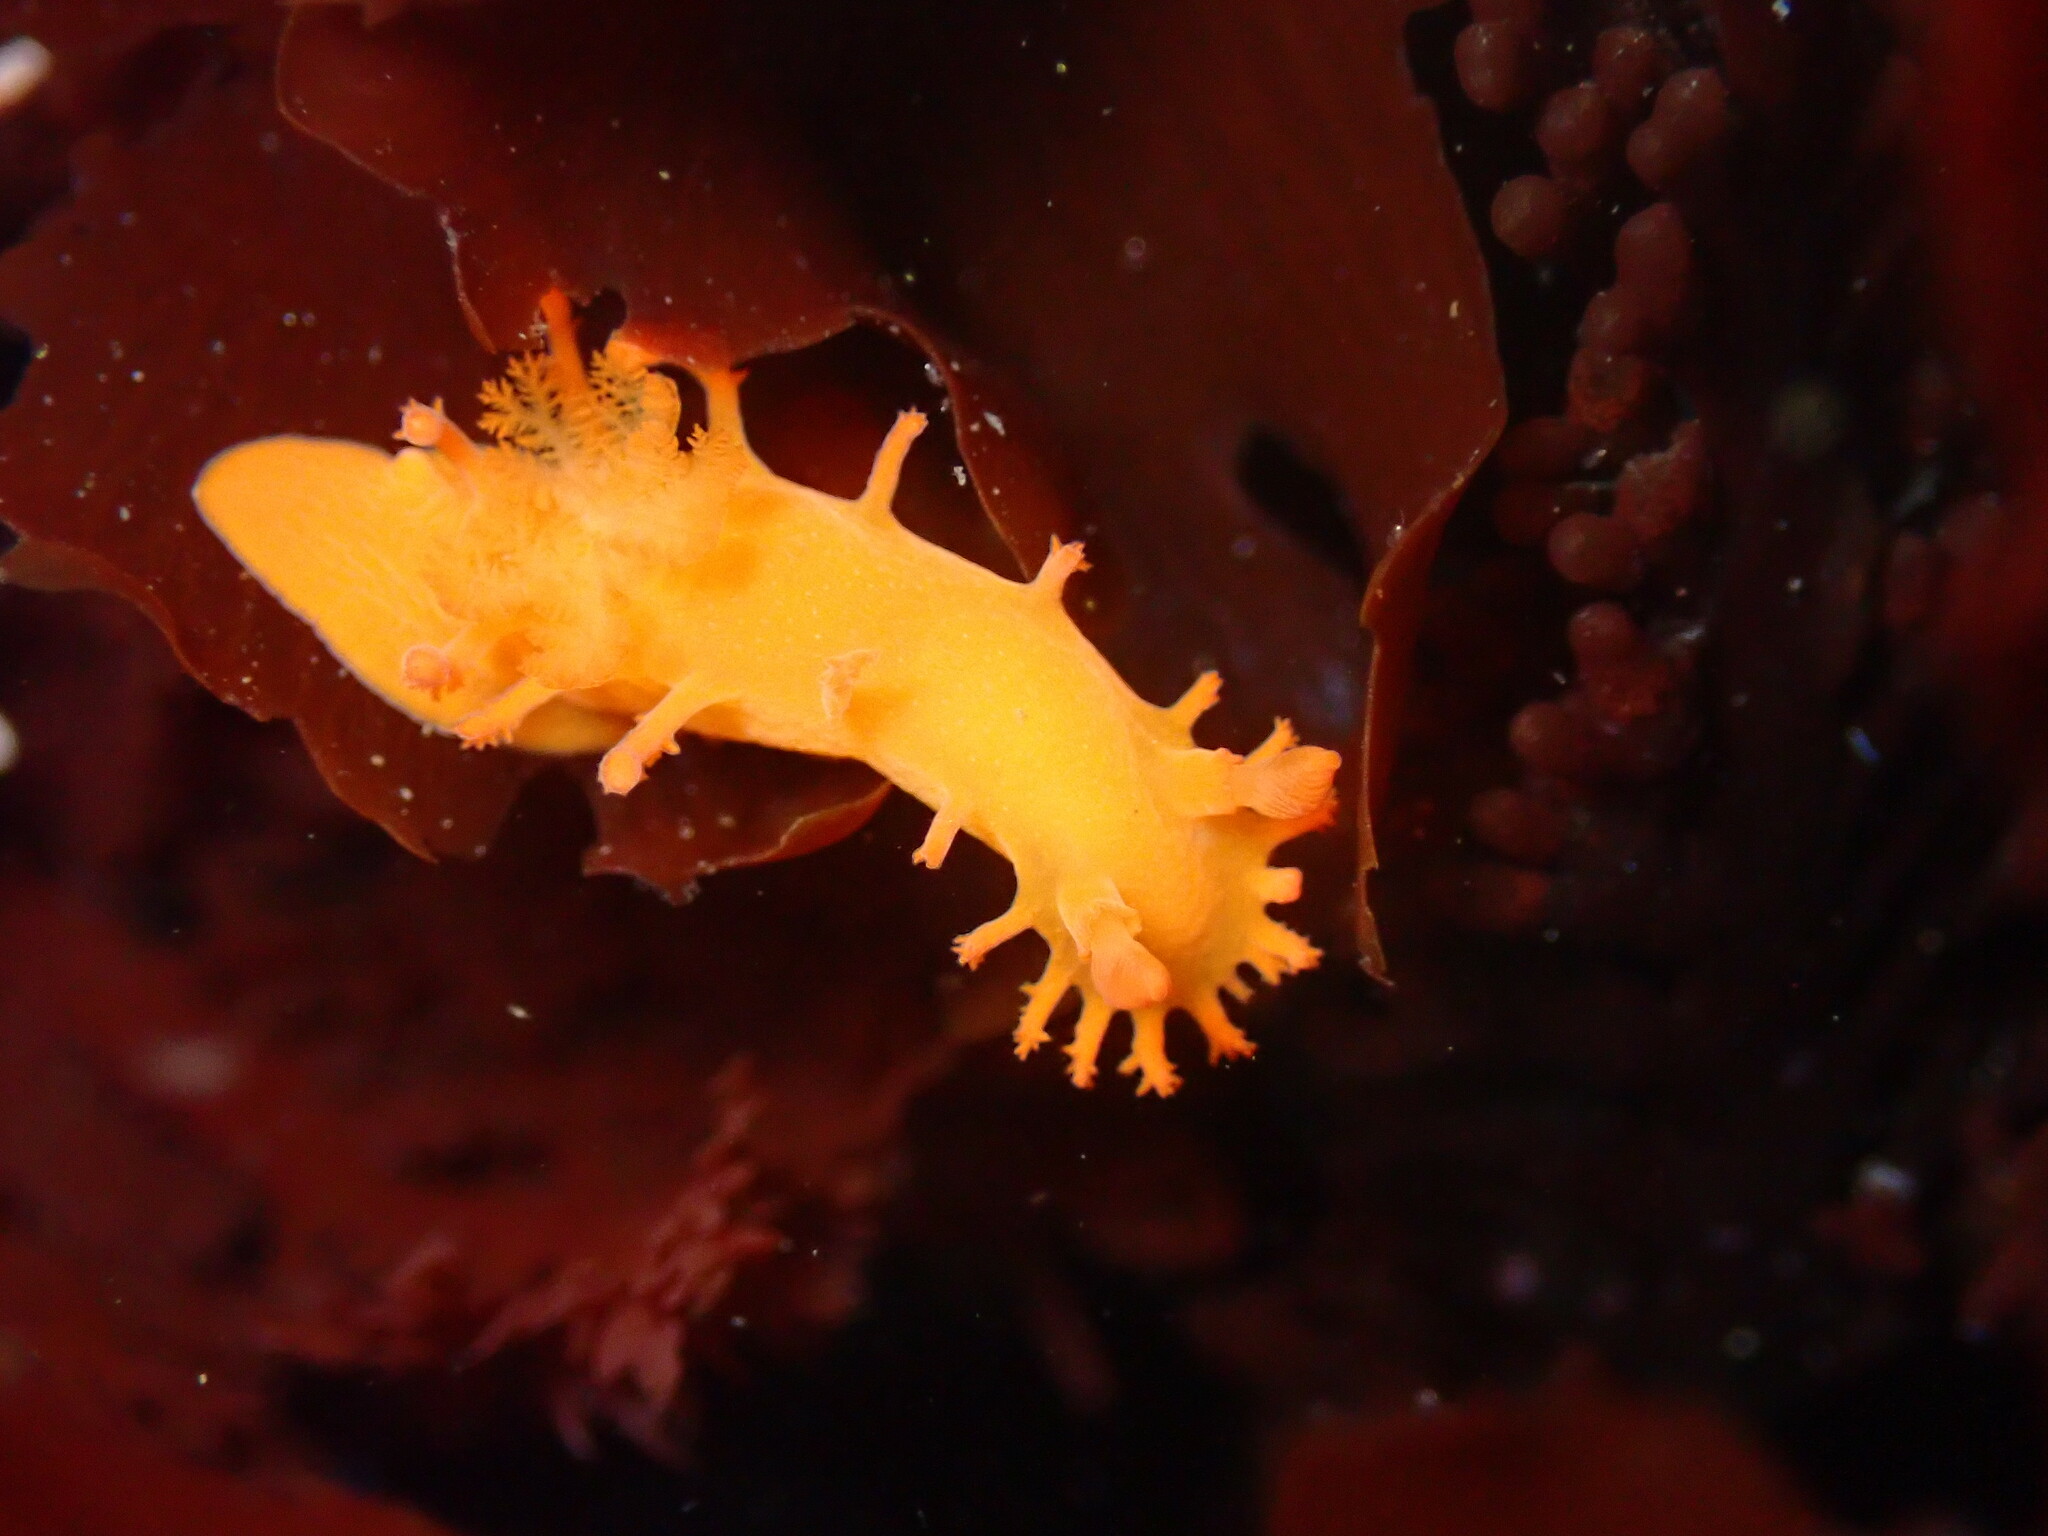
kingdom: Animalia
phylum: Mollusca
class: Gastropoda
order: Nudibranchia
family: Polyceridae
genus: Triopha
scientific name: Triopha maculata
